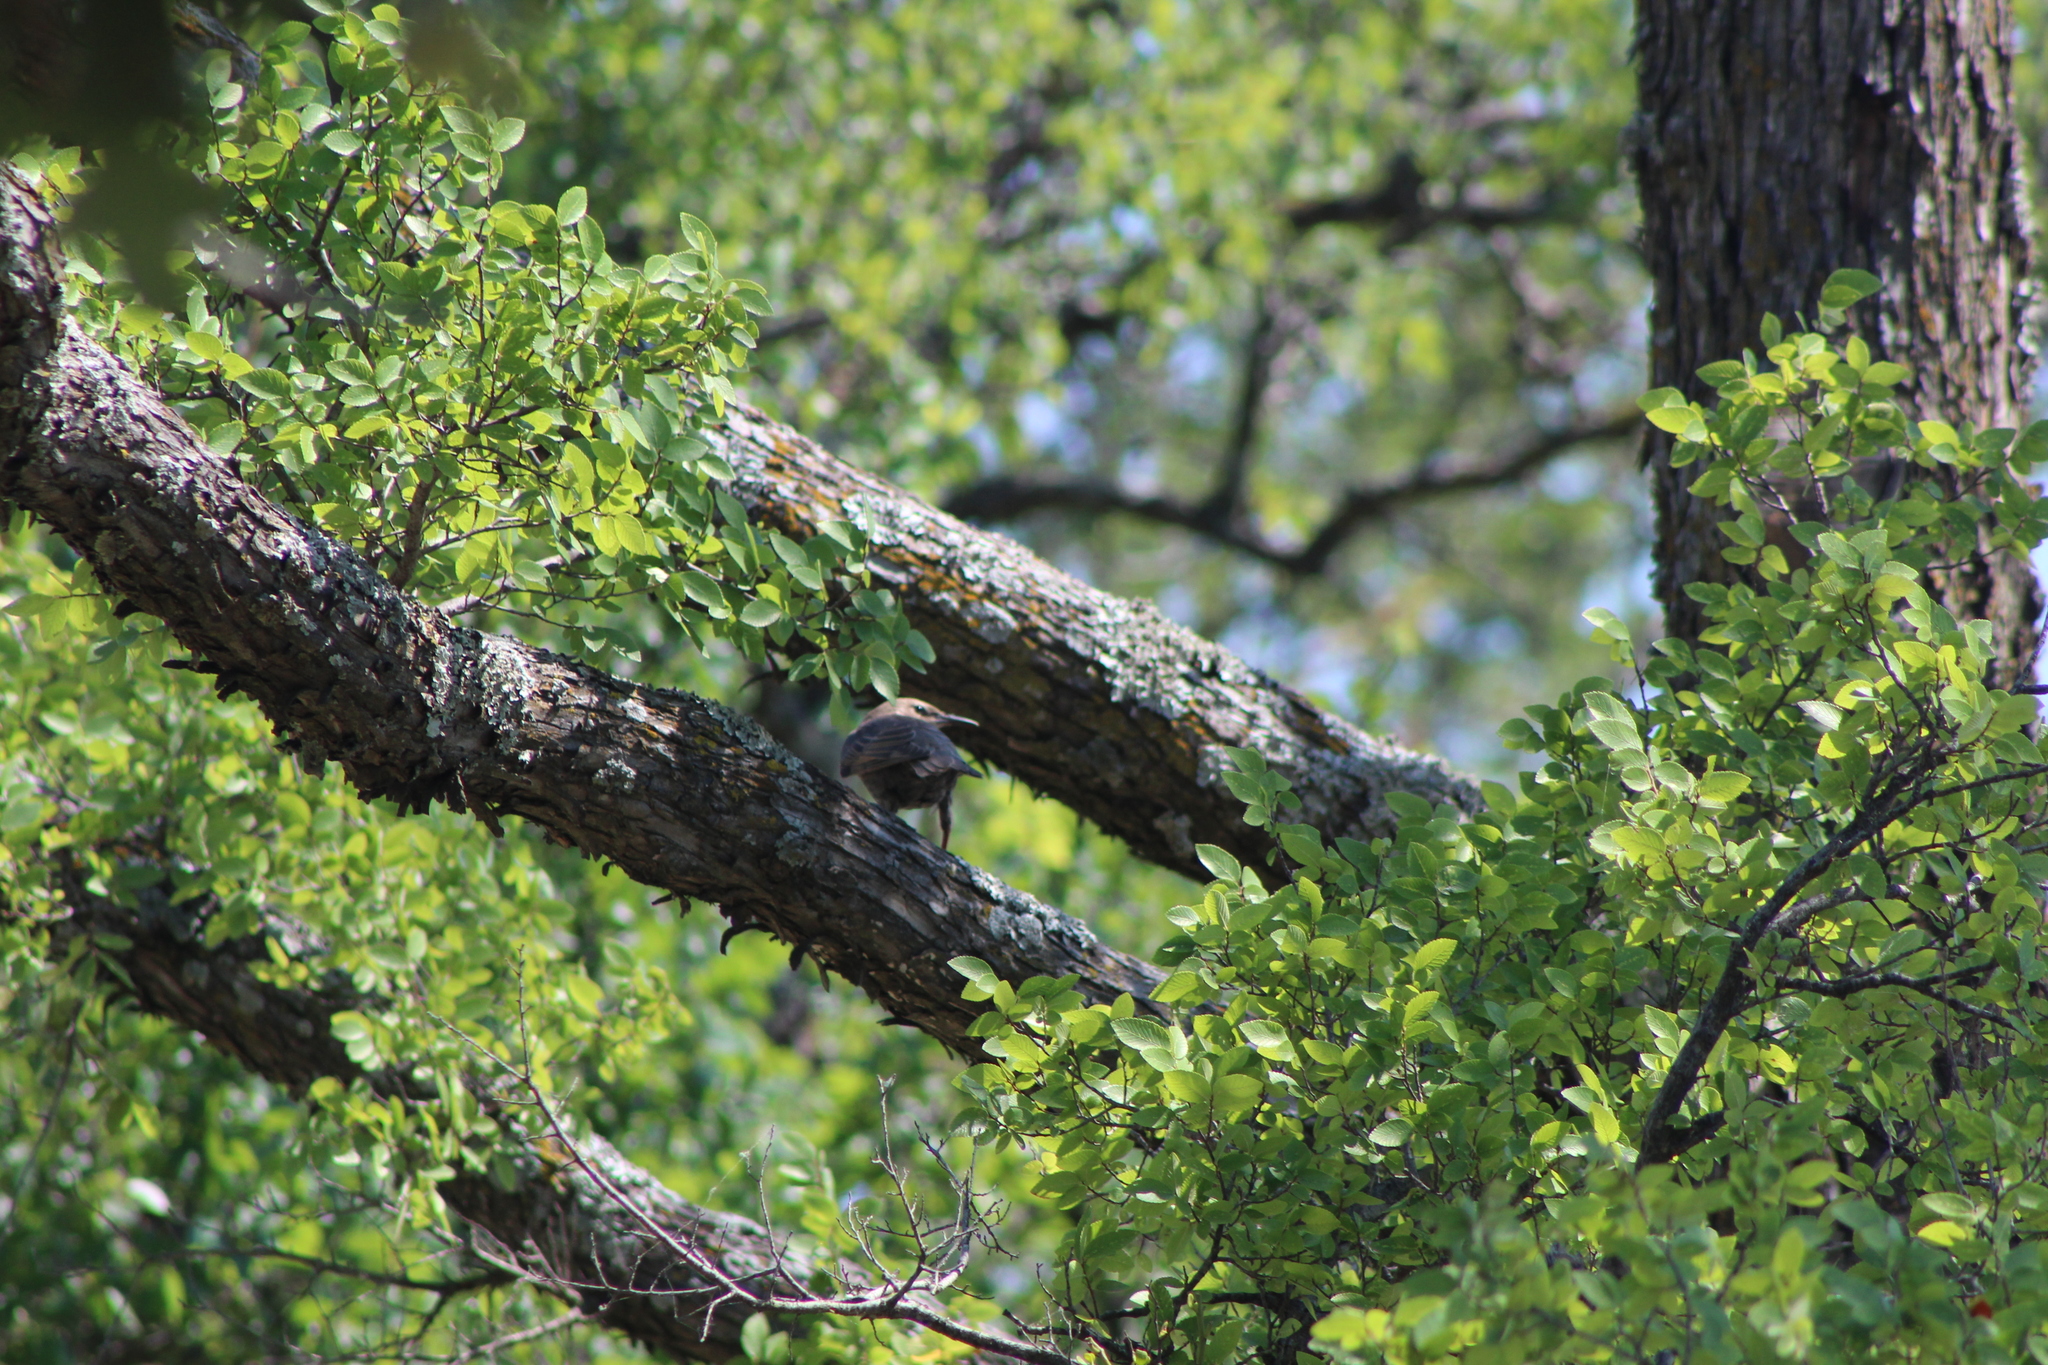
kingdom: Animalia
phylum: Chordata
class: Aves
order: Passeriformes
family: Sturnidae
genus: Sturnus
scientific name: Sturnus vulgaris
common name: Common starling
